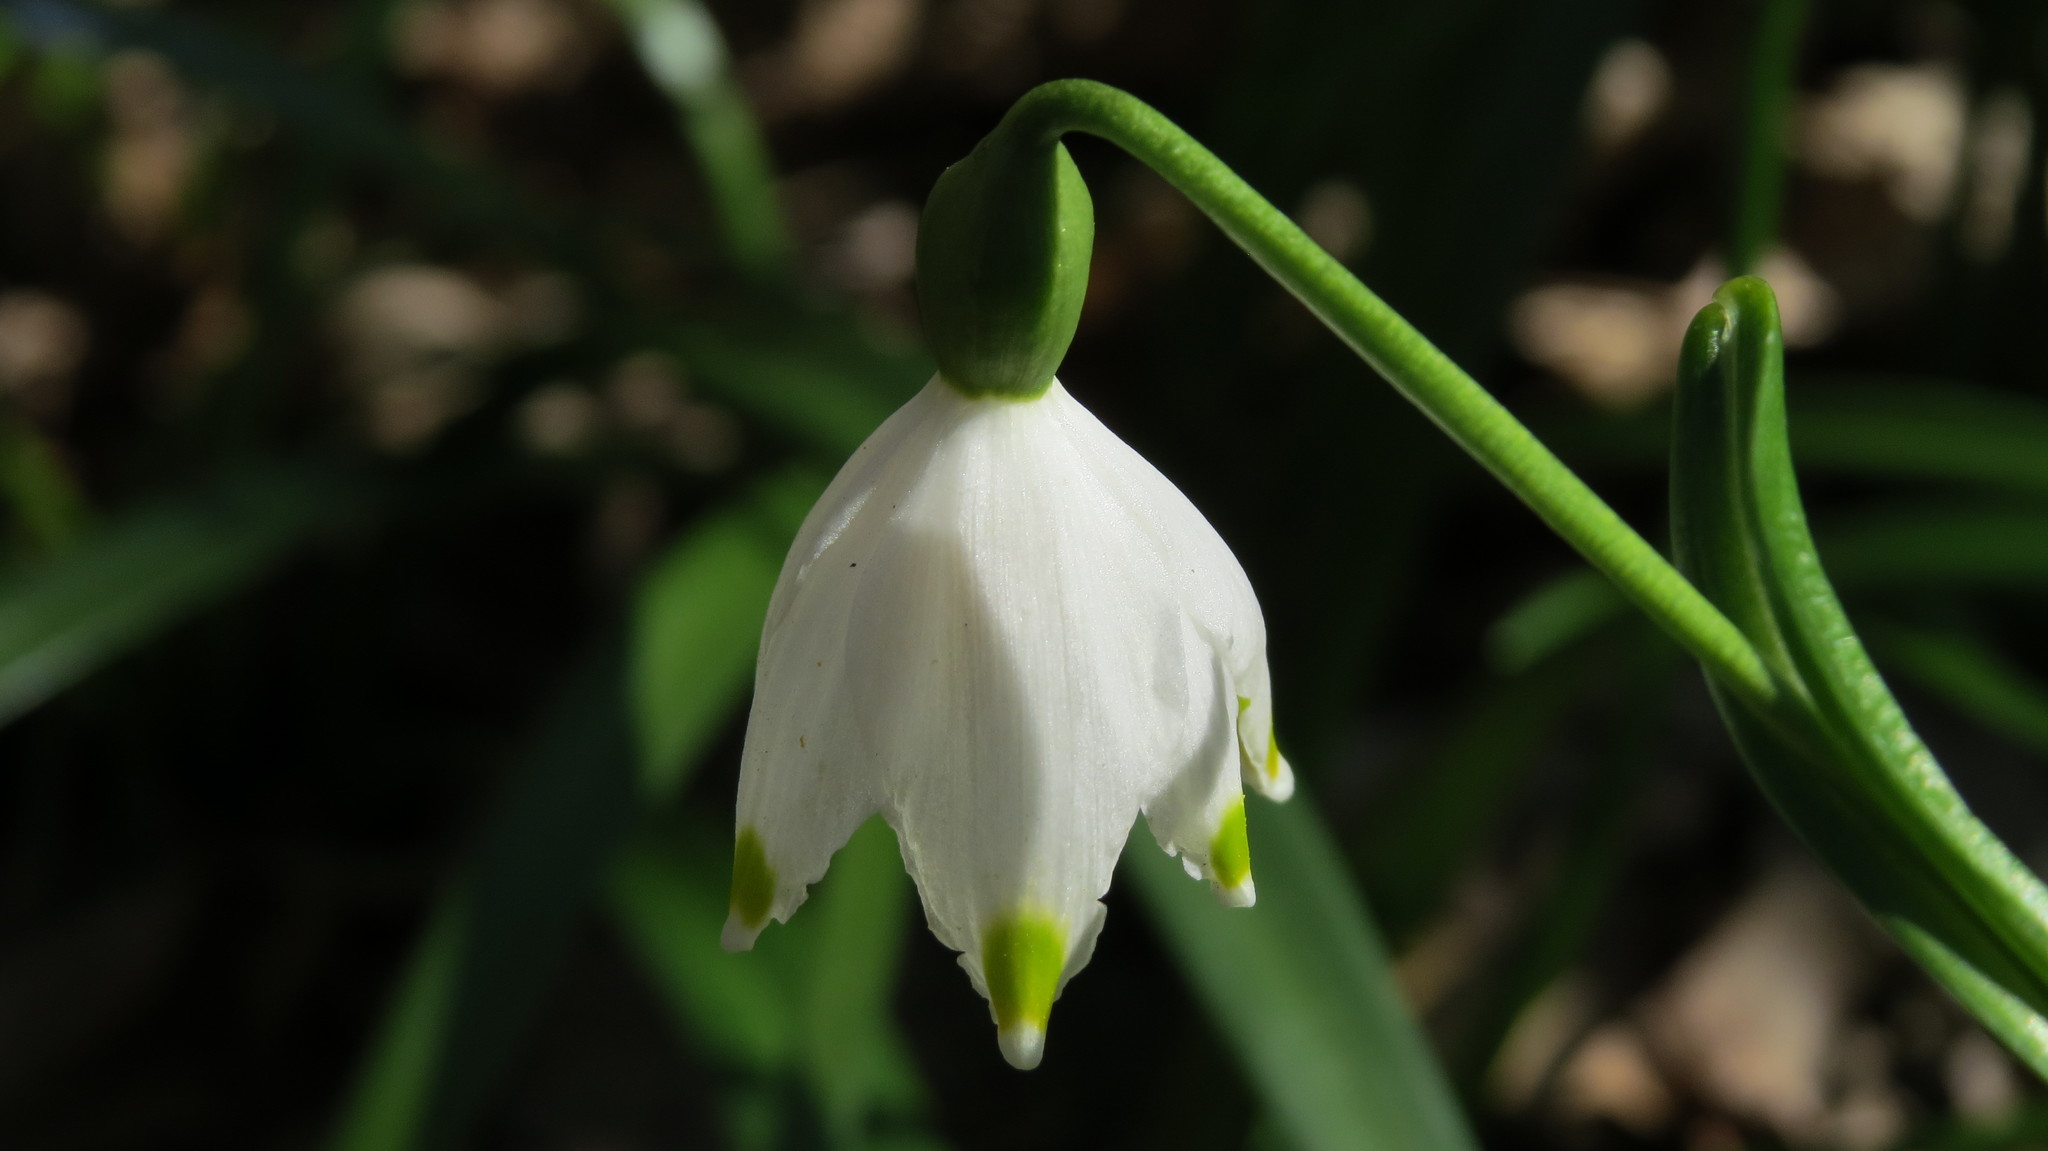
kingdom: Plantae
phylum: Tracheophyta
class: Liliopsida
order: Asparagales
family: Amaryllidaceae
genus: Leucojum
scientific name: Leucojum vernum
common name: Spring snowflake
